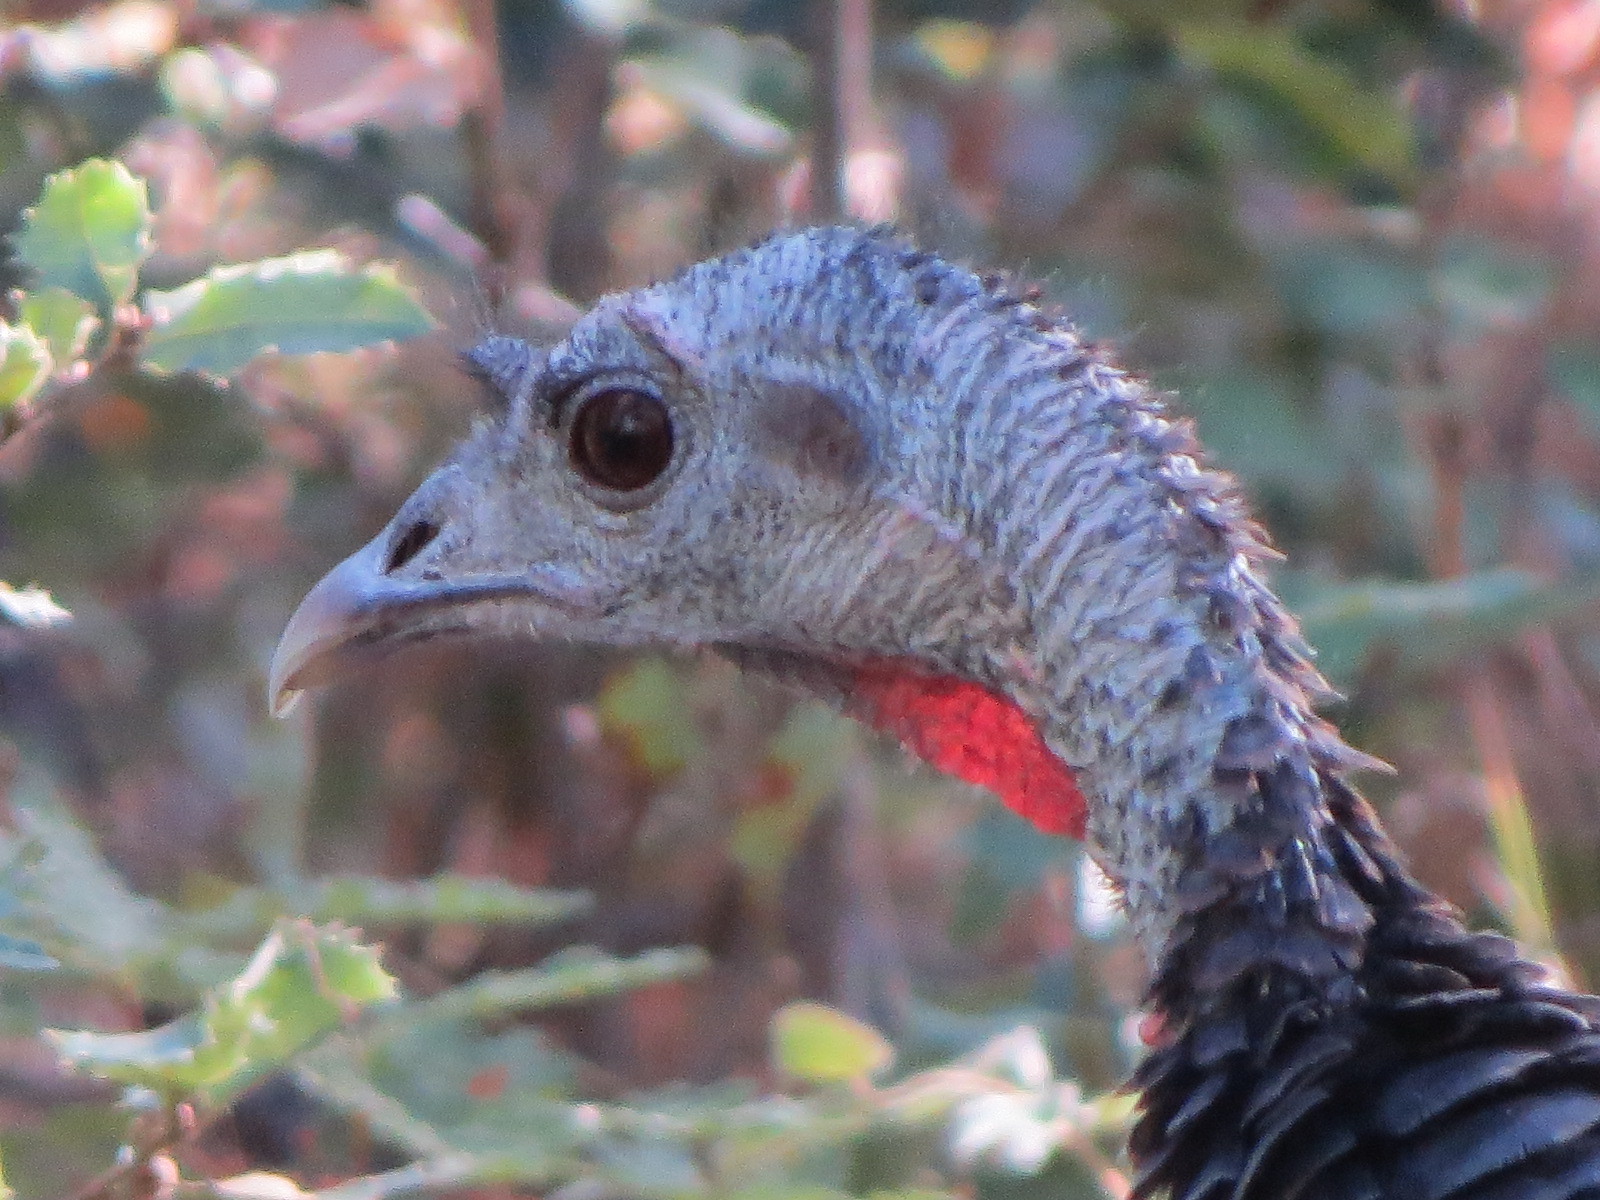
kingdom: Animalia
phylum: Chordata
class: Aves
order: Galliformes
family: Phasianidae
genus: Meleagris
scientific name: Meleagris gallopavo
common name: Wild turkey
